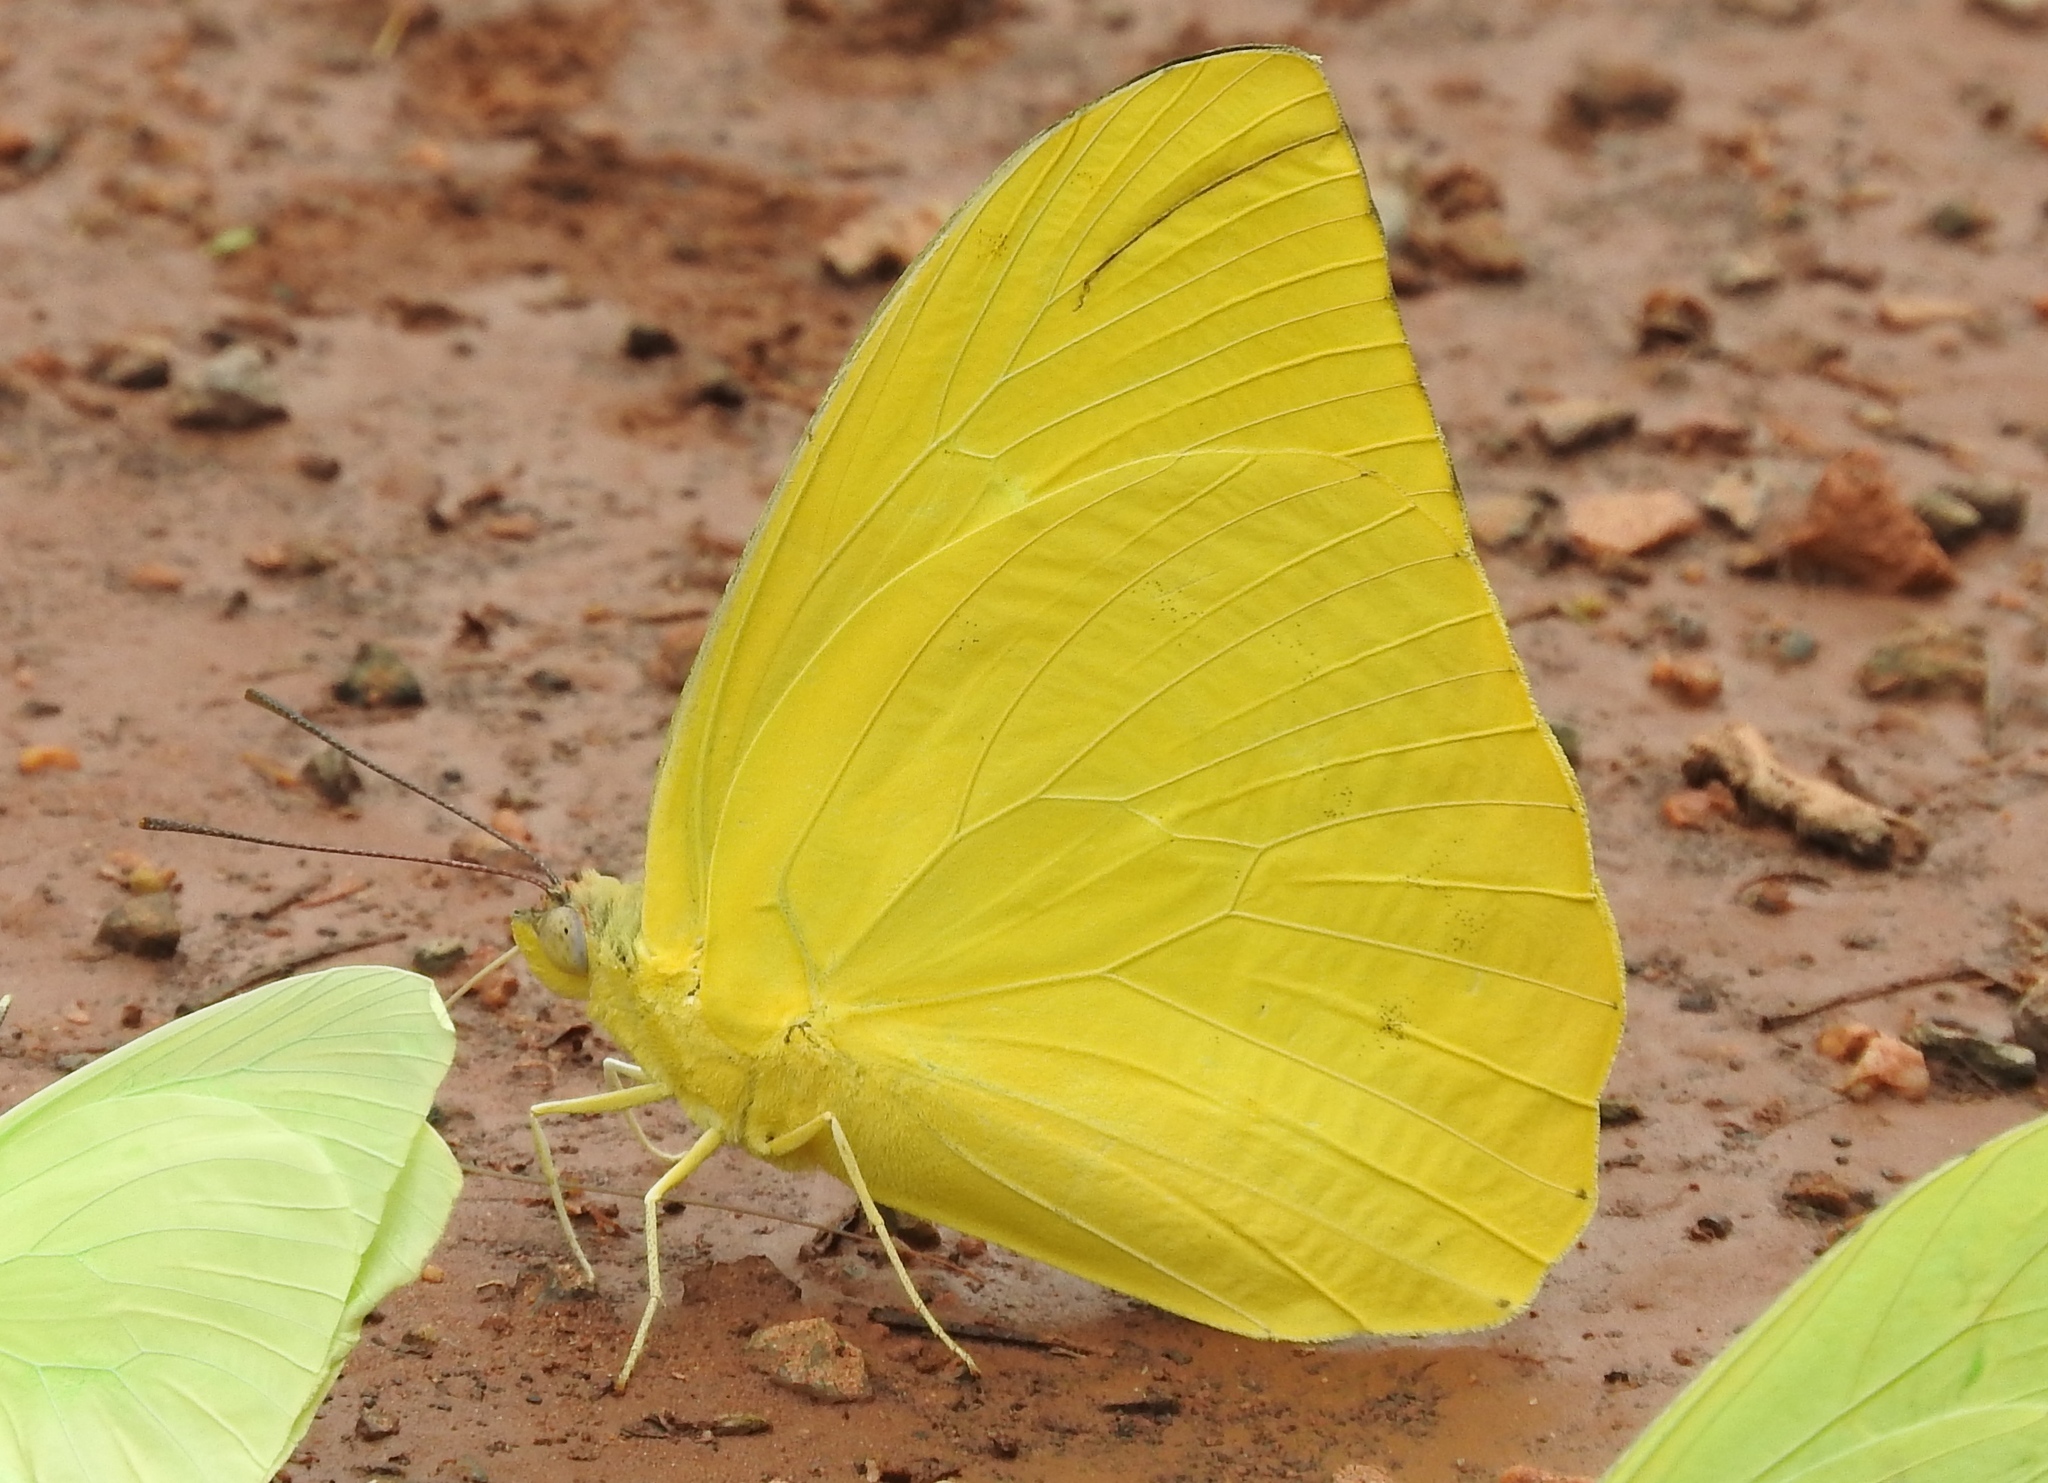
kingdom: Animalia
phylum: Arthropoda
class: Insecta
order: Lepidoptera
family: Pieridae
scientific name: Pieridae
